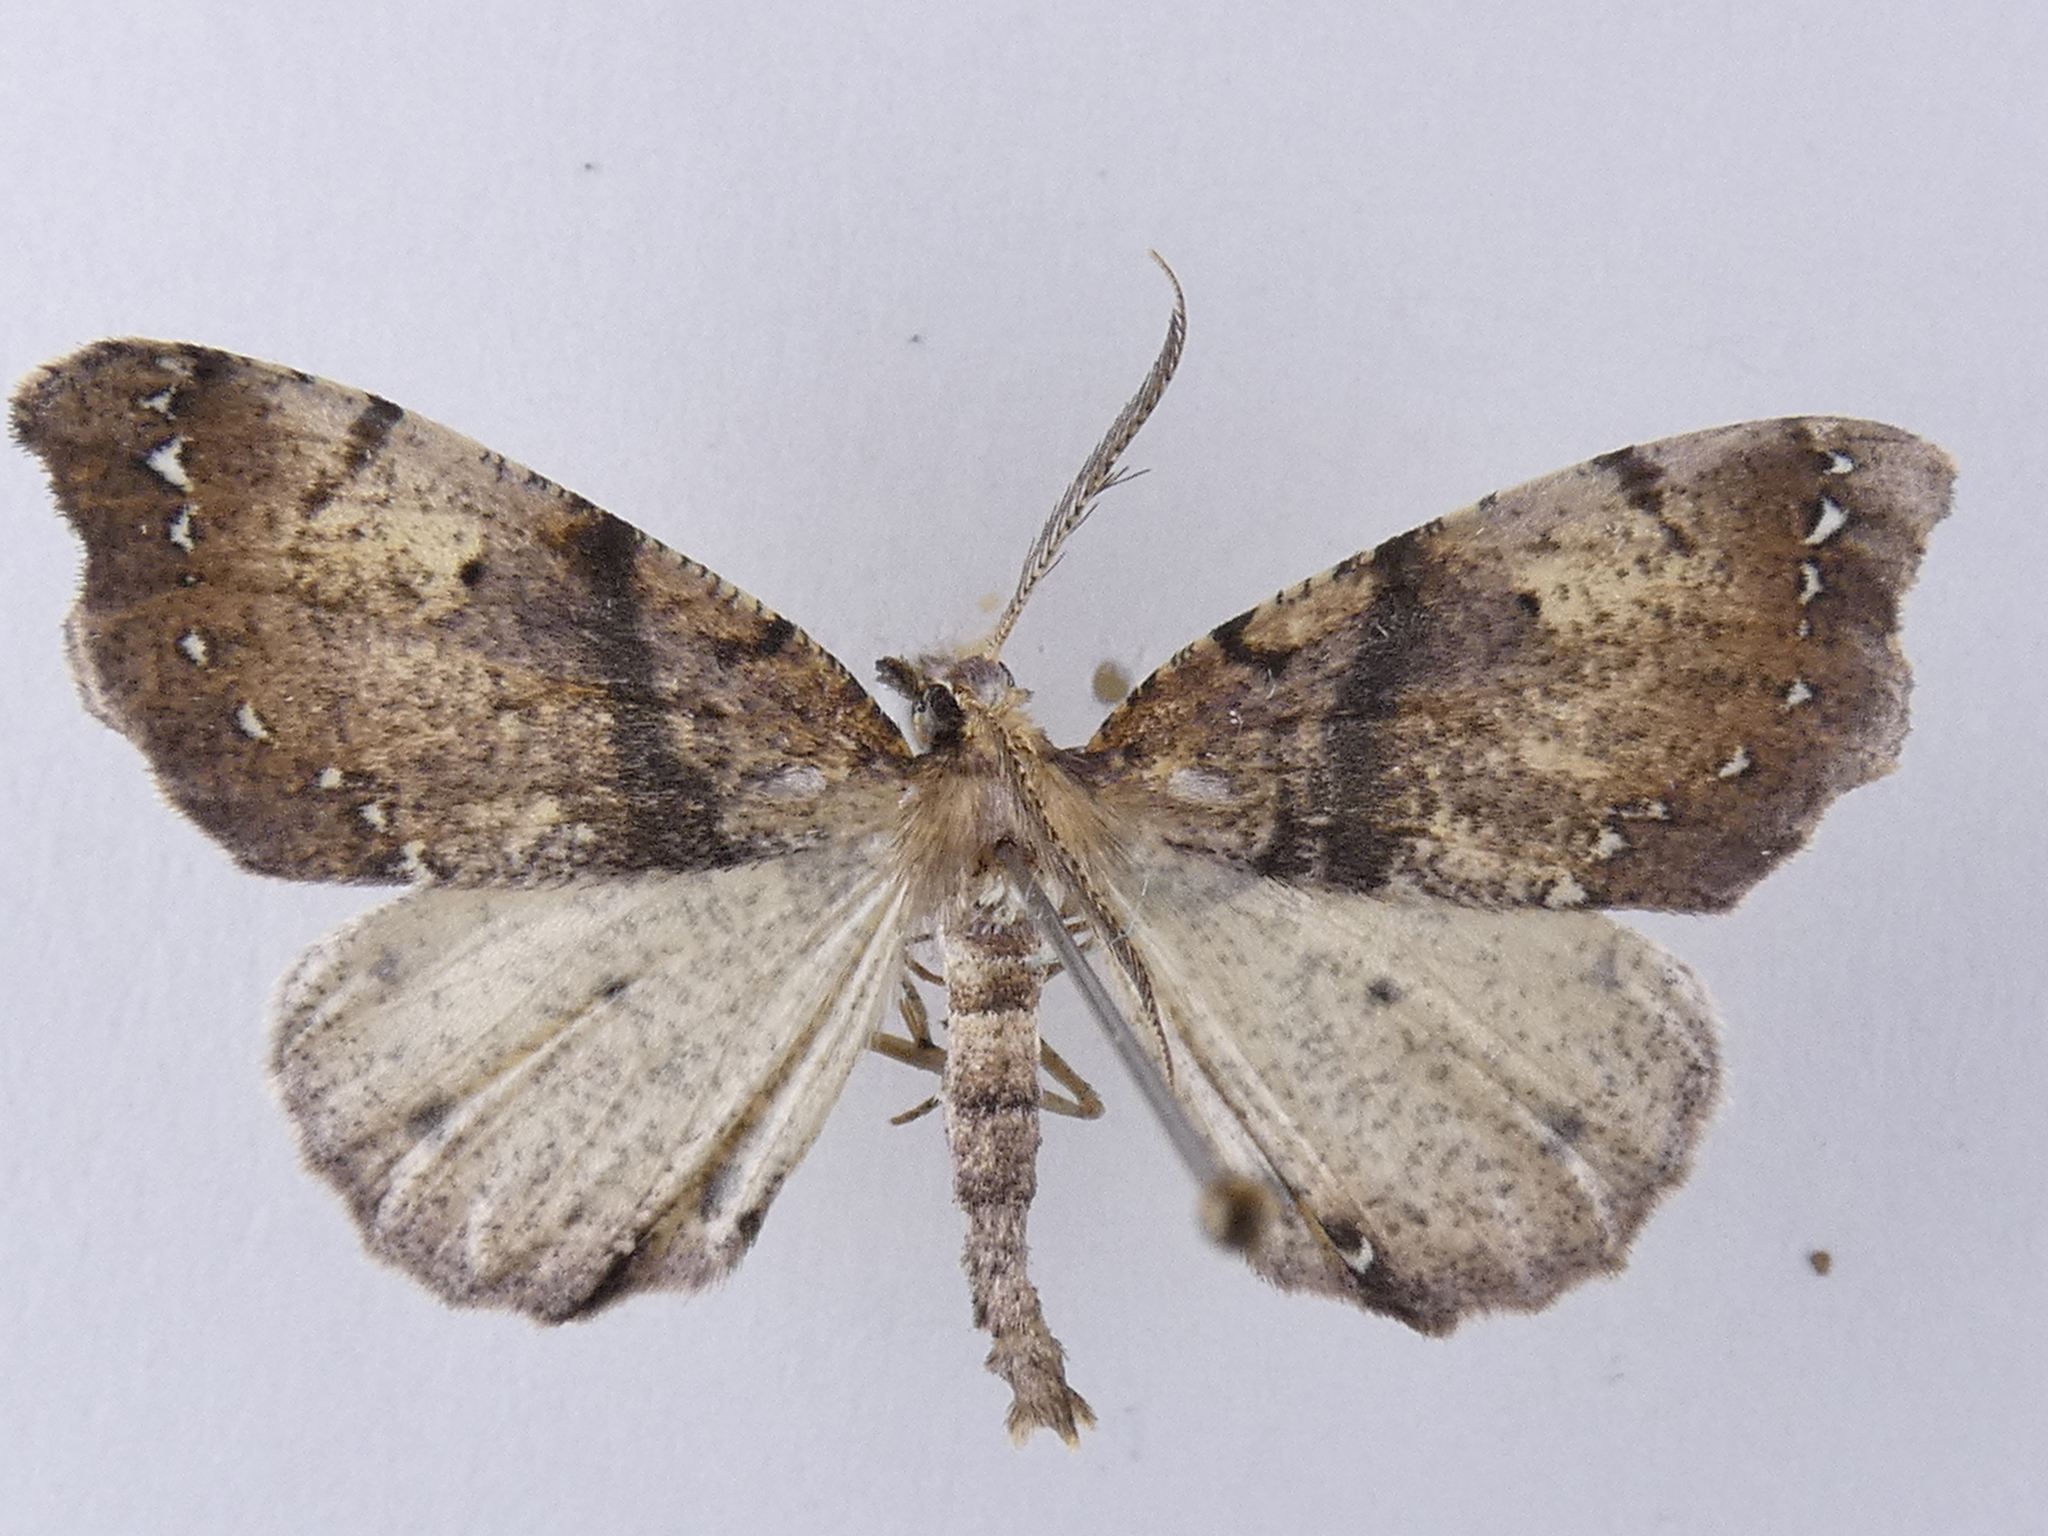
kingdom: Animalia
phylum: Arthropoda
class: Insecta
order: Lepidoptera
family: Geometridae
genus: Chalastra
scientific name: Chalastra pellurgata
